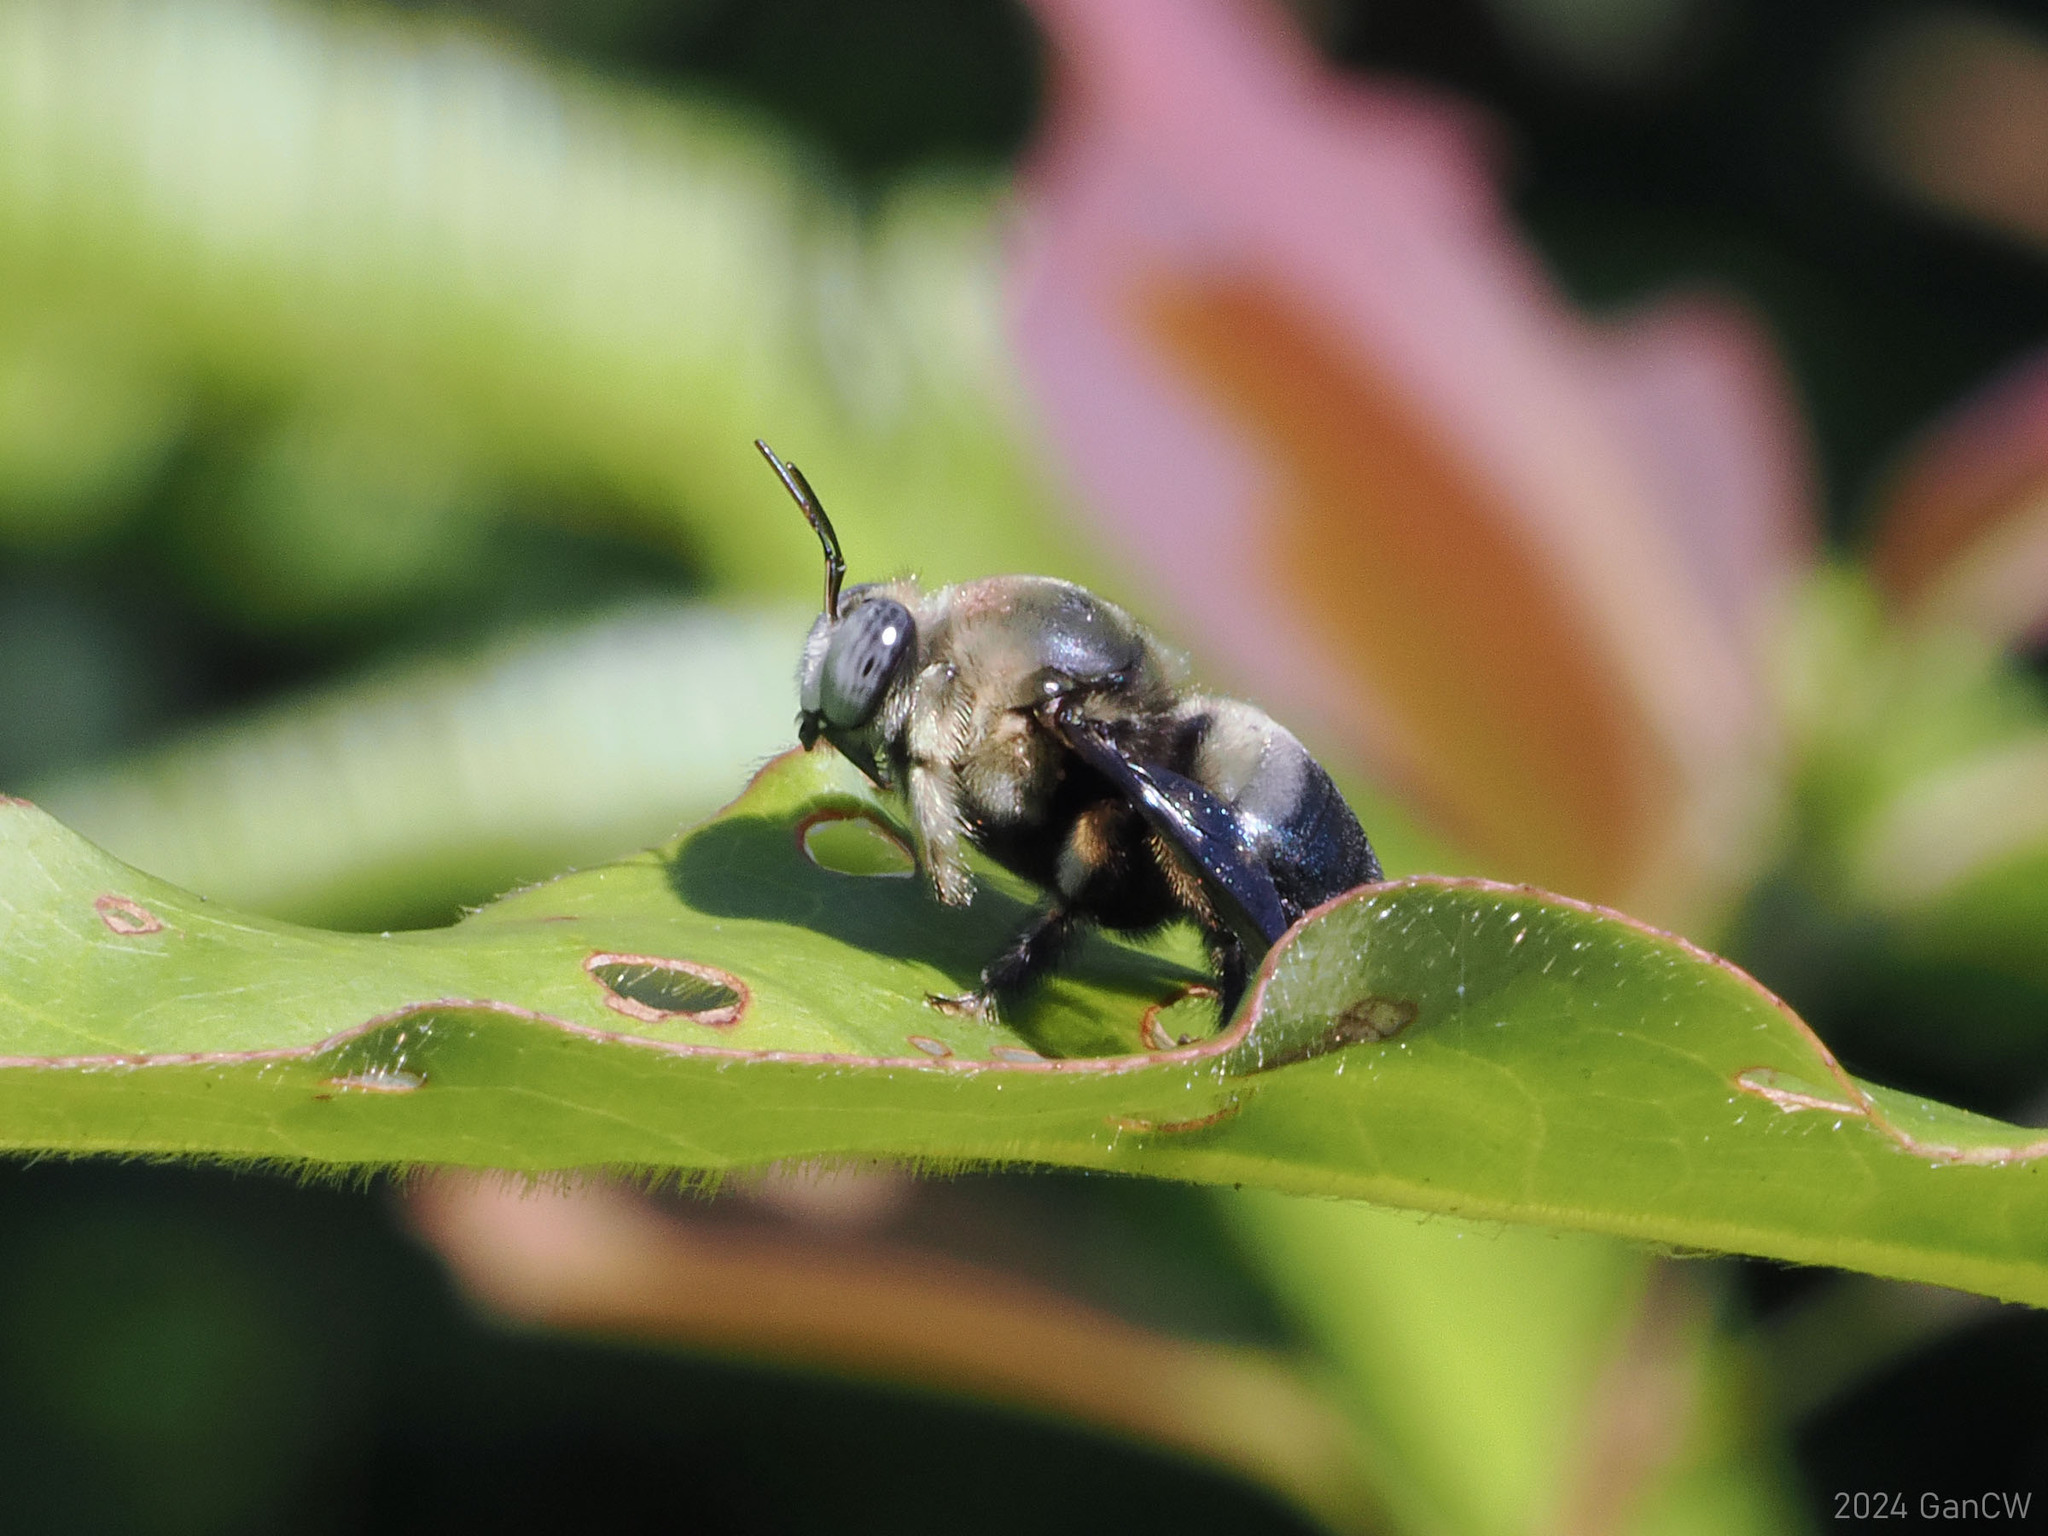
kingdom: Animalia
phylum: Arthropoda
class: Insecta
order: Hymenoptera
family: Apidae
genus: Xylocopa
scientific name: Xylocopa dejeanii
